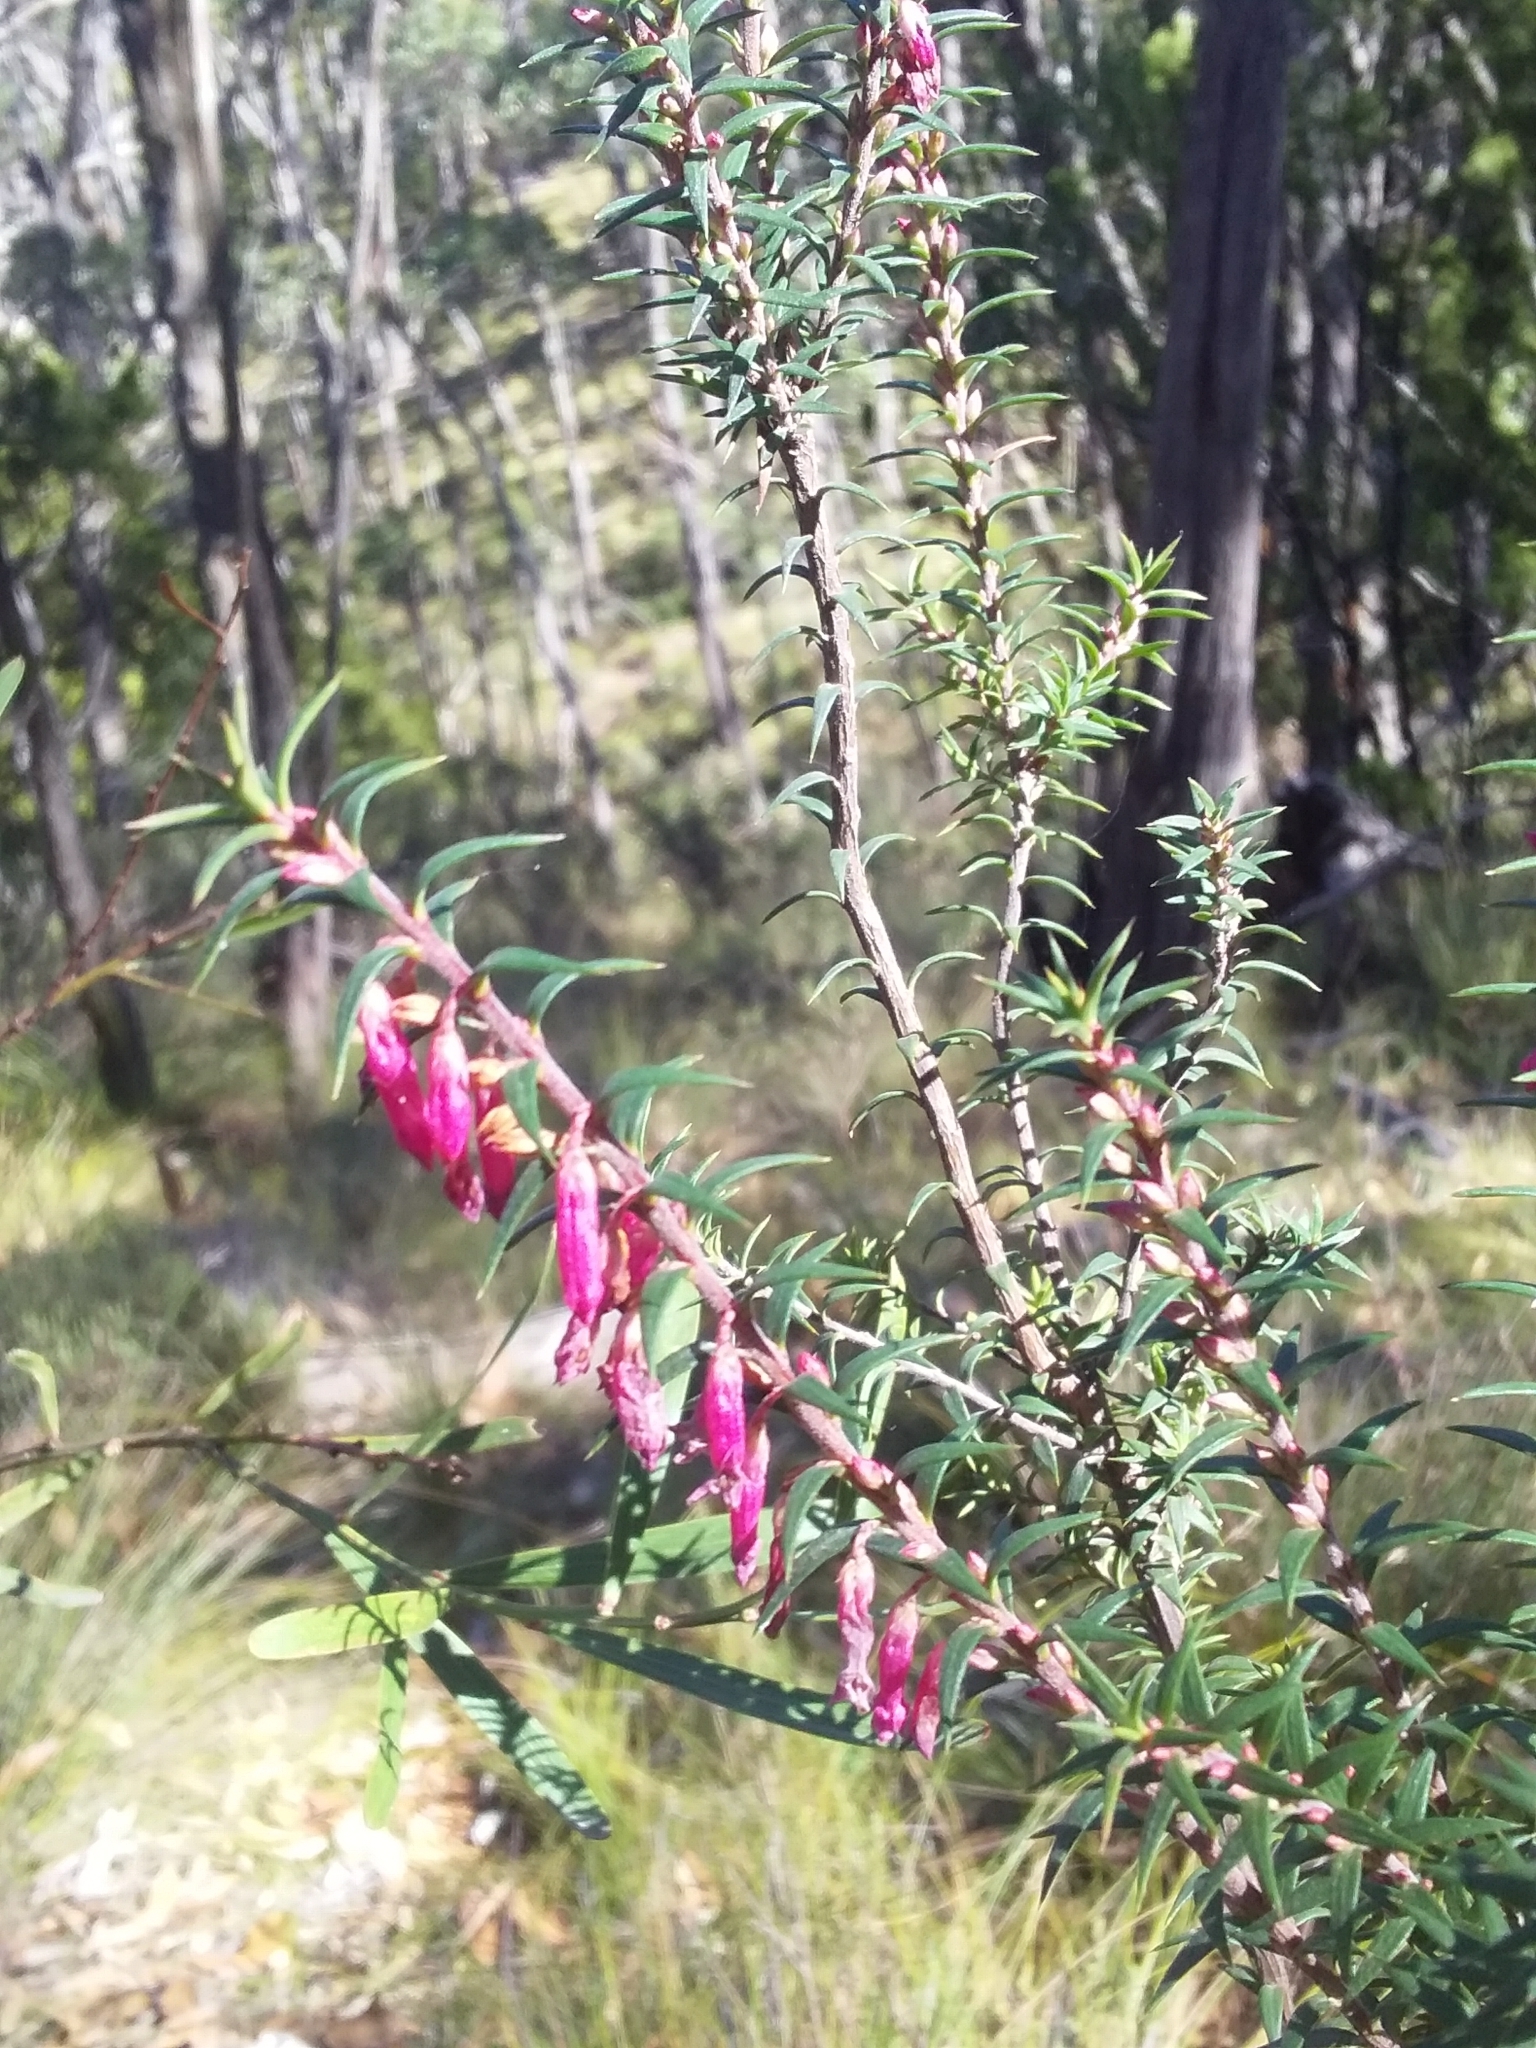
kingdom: Plantae
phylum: Tracheophyta
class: Magnoliopsida
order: Ericales
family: Ericaceae
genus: Epacris
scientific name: Epacris impressa
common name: Common-heath
